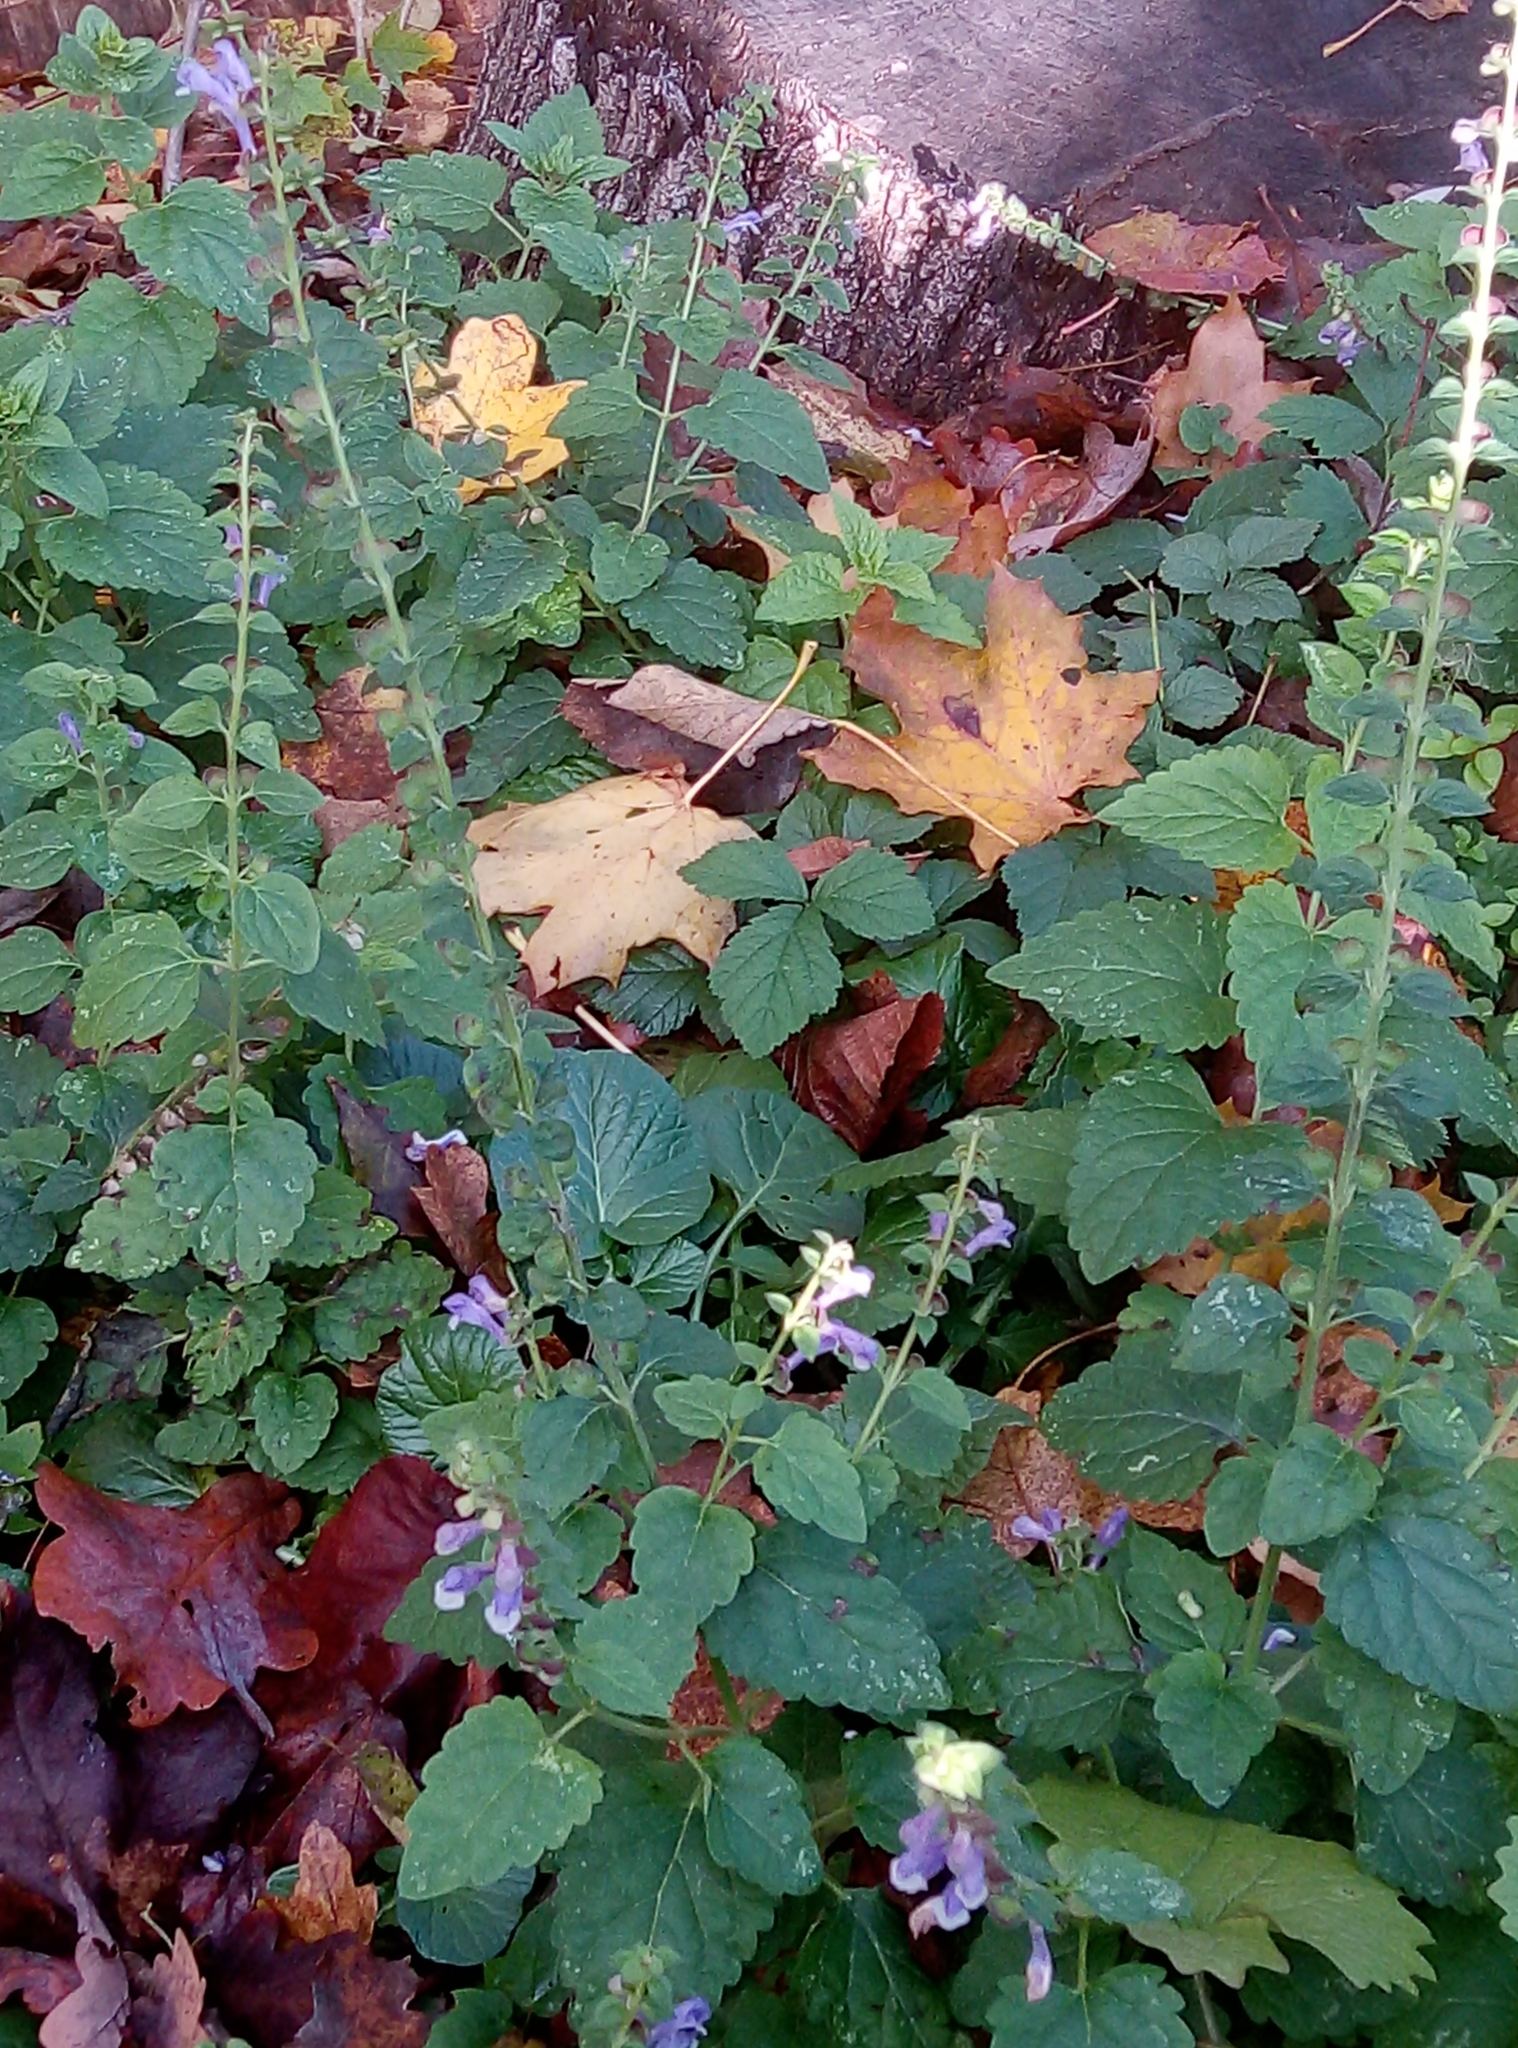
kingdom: Plantae
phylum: Tracheophyta
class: Magnoliopsida
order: Lamiales
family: Lamiaceae
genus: Scutellaria
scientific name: Scutellaria altissima
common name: Somerset skullcap
